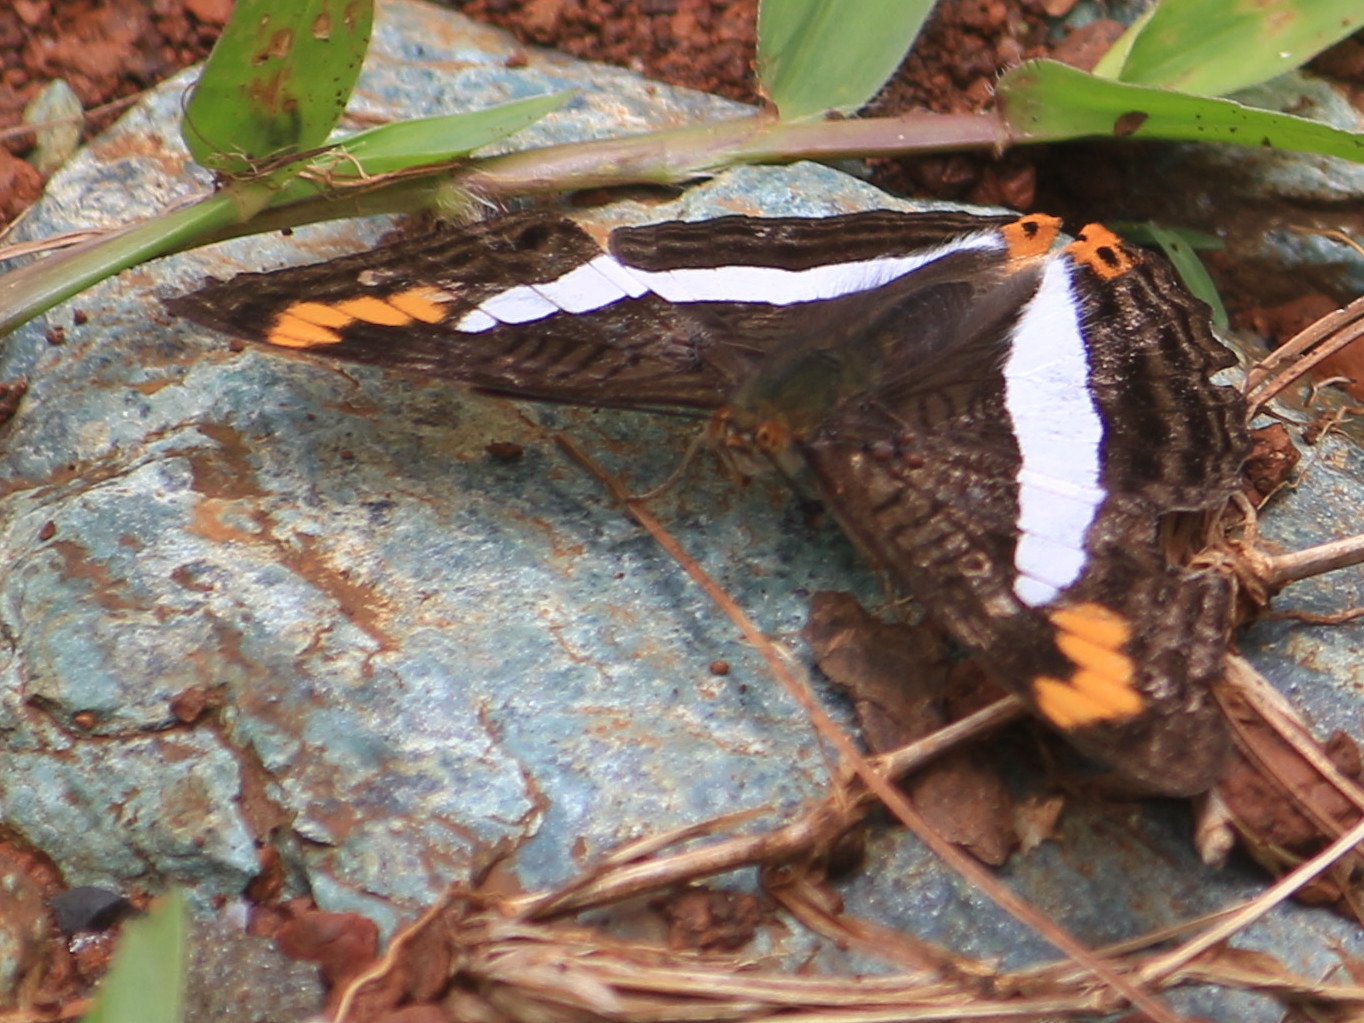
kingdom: Animalia
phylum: Arthropoda
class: Insecta
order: Lepidoptera
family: Nymphalidae
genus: Limenitis
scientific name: Limenitis pithys
